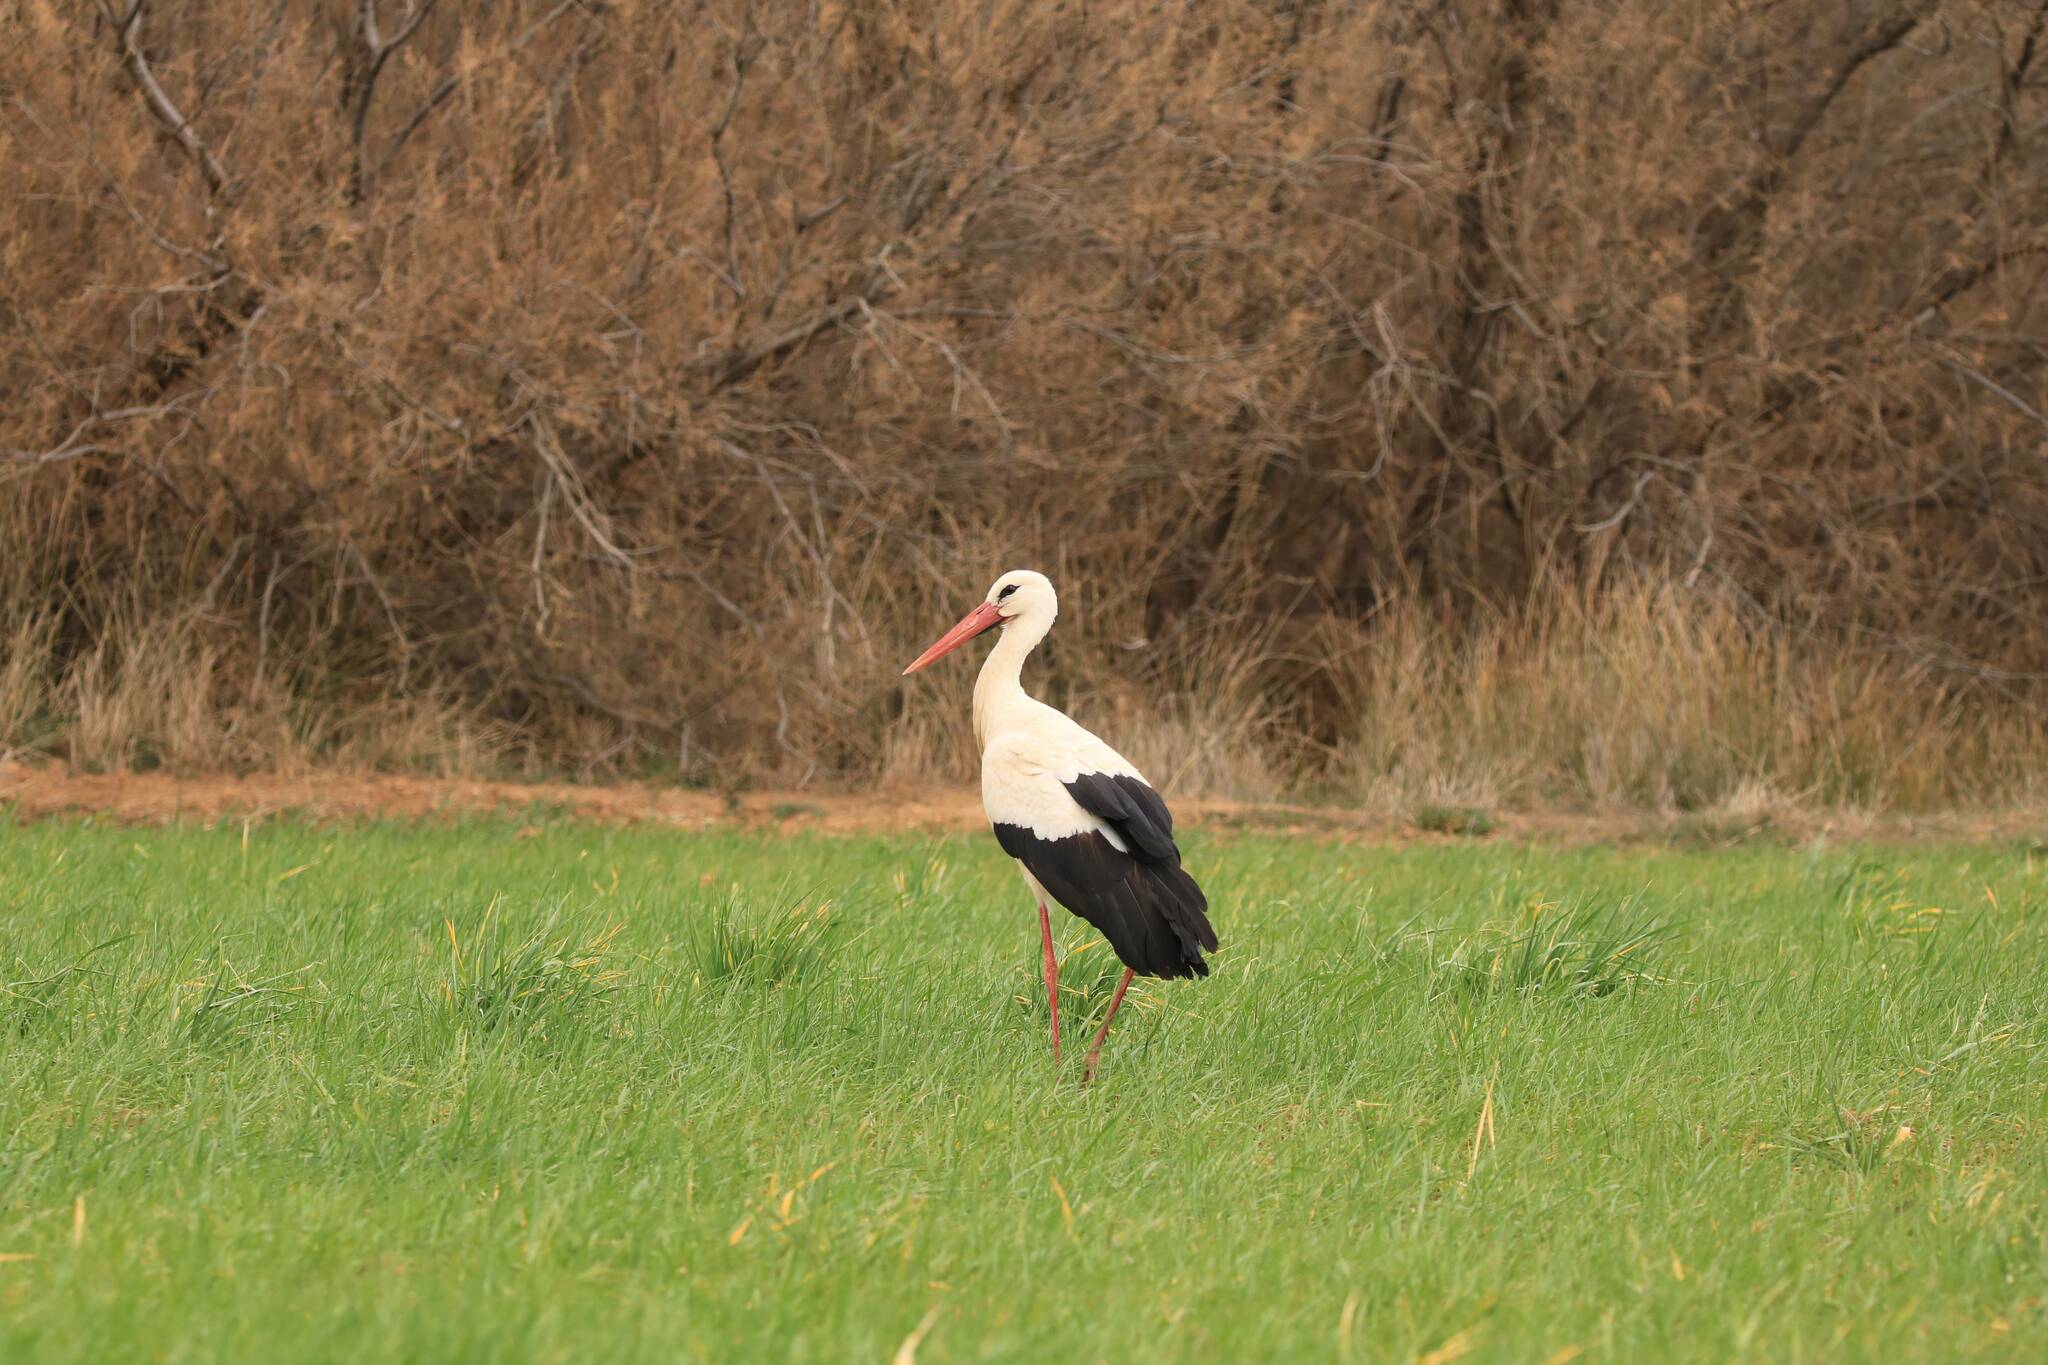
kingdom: Animalia
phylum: Chordata
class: Aves
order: Ciconiiformes
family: Ciconiidae
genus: Ciconia
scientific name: Ciconia ciconia
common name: White stork
